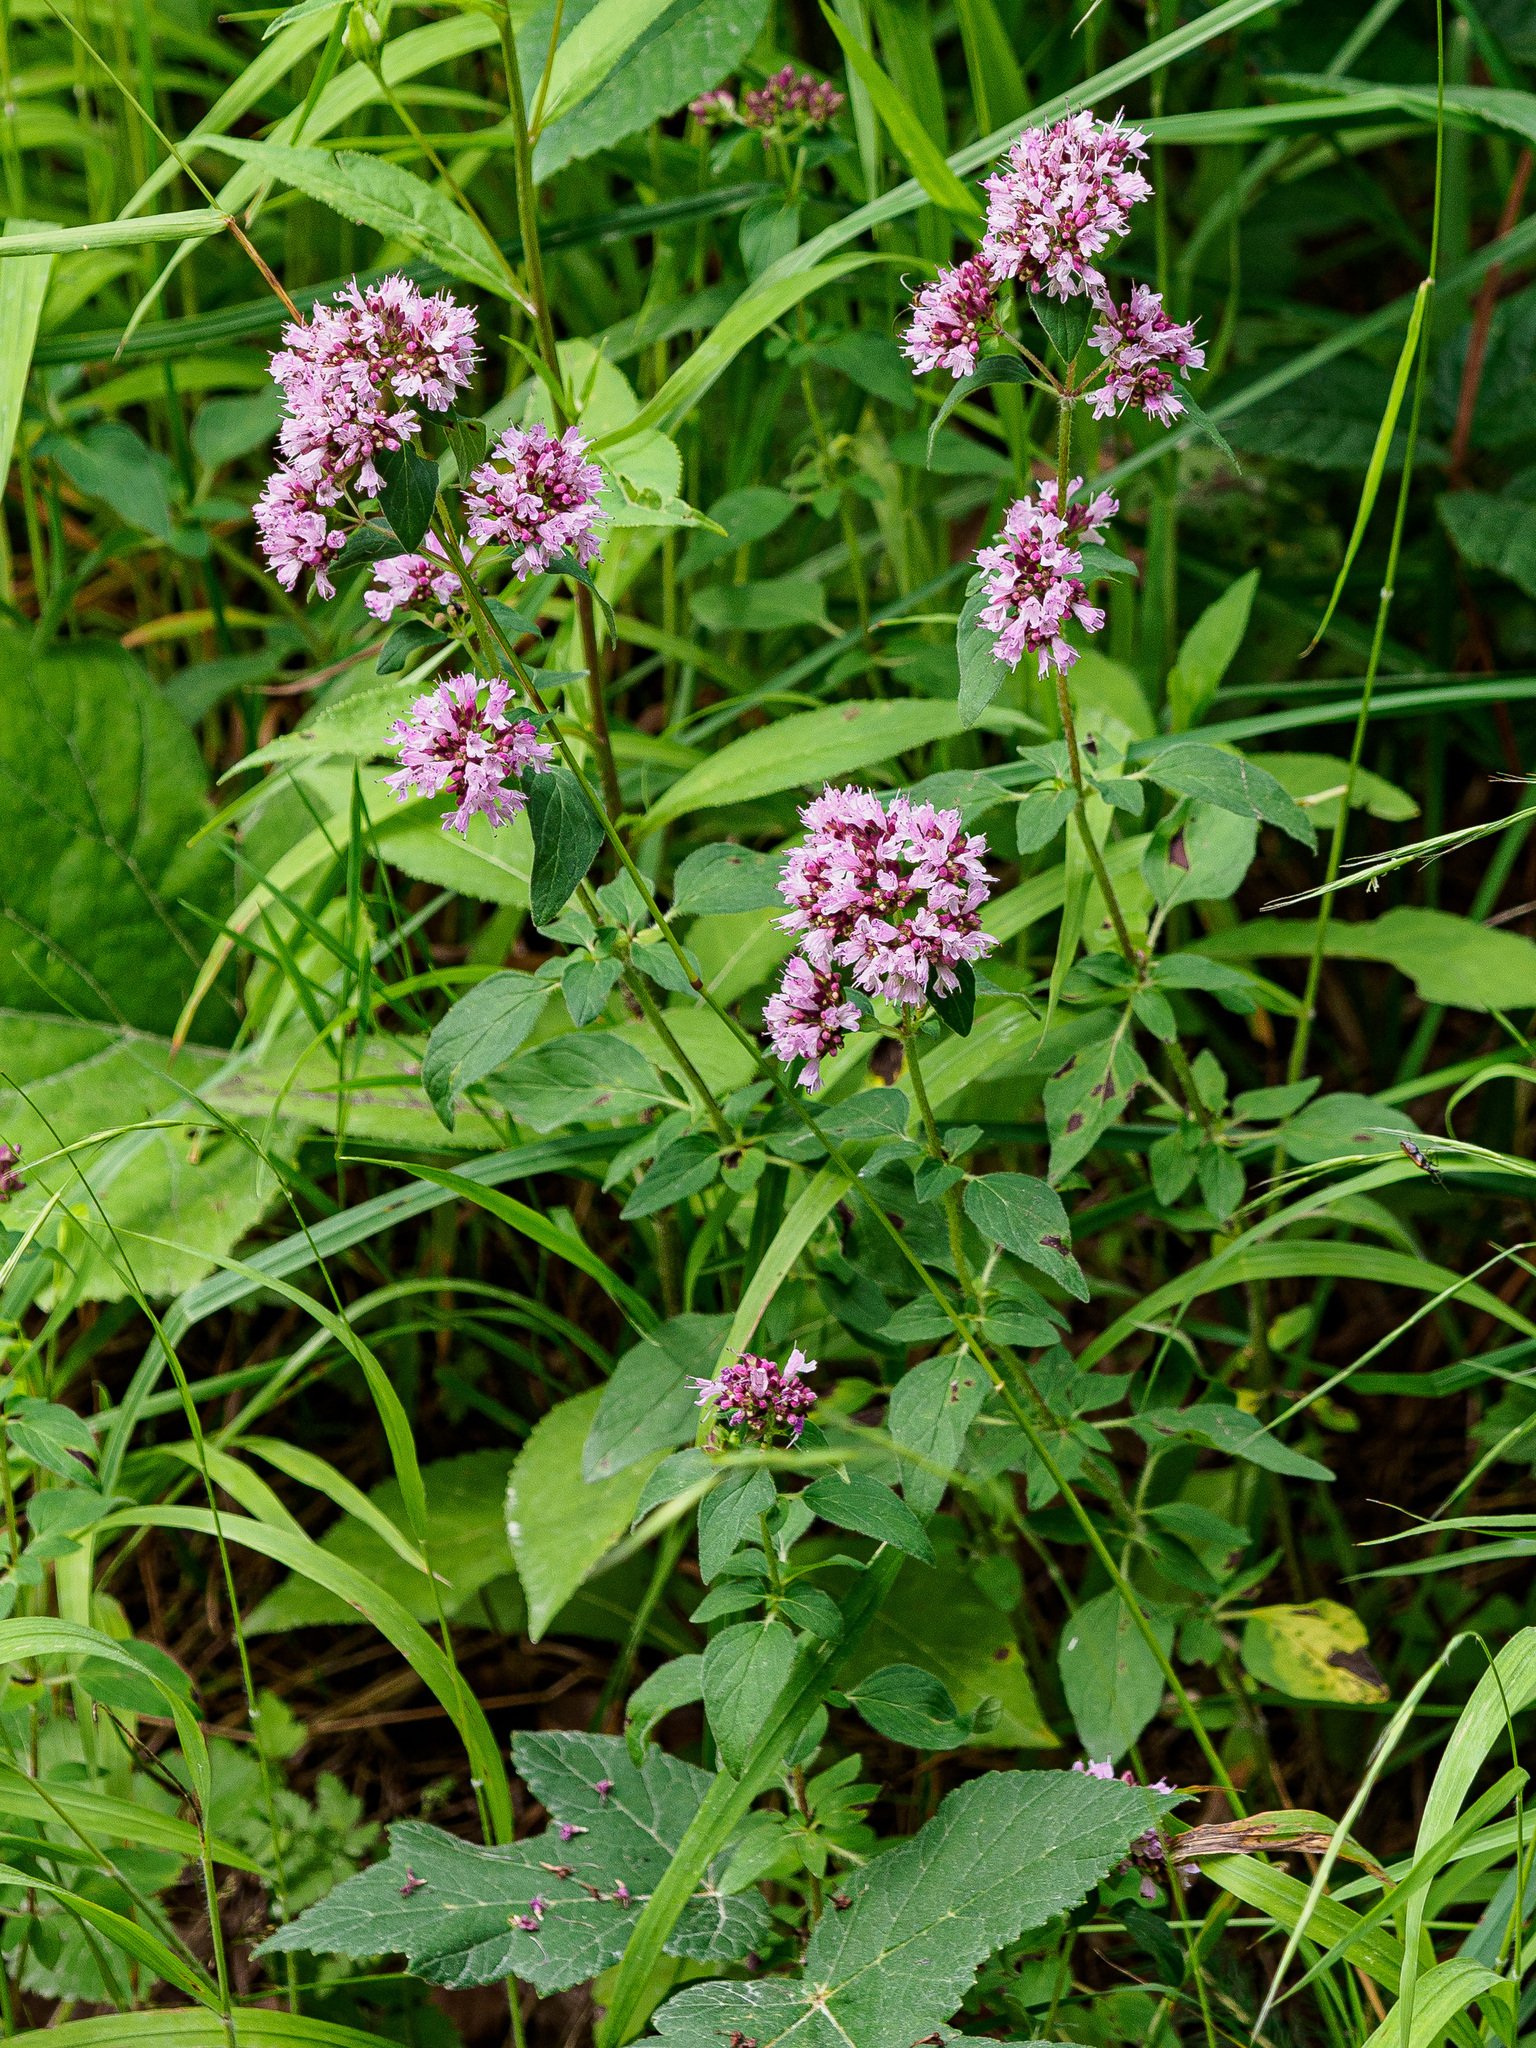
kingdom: Plantae
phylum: Tracheophyta
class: Magnoliopsida
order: Lamiales
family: Lamiaceae
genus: Origanum
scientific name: Origanum vulgare
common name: Wild marjoram
